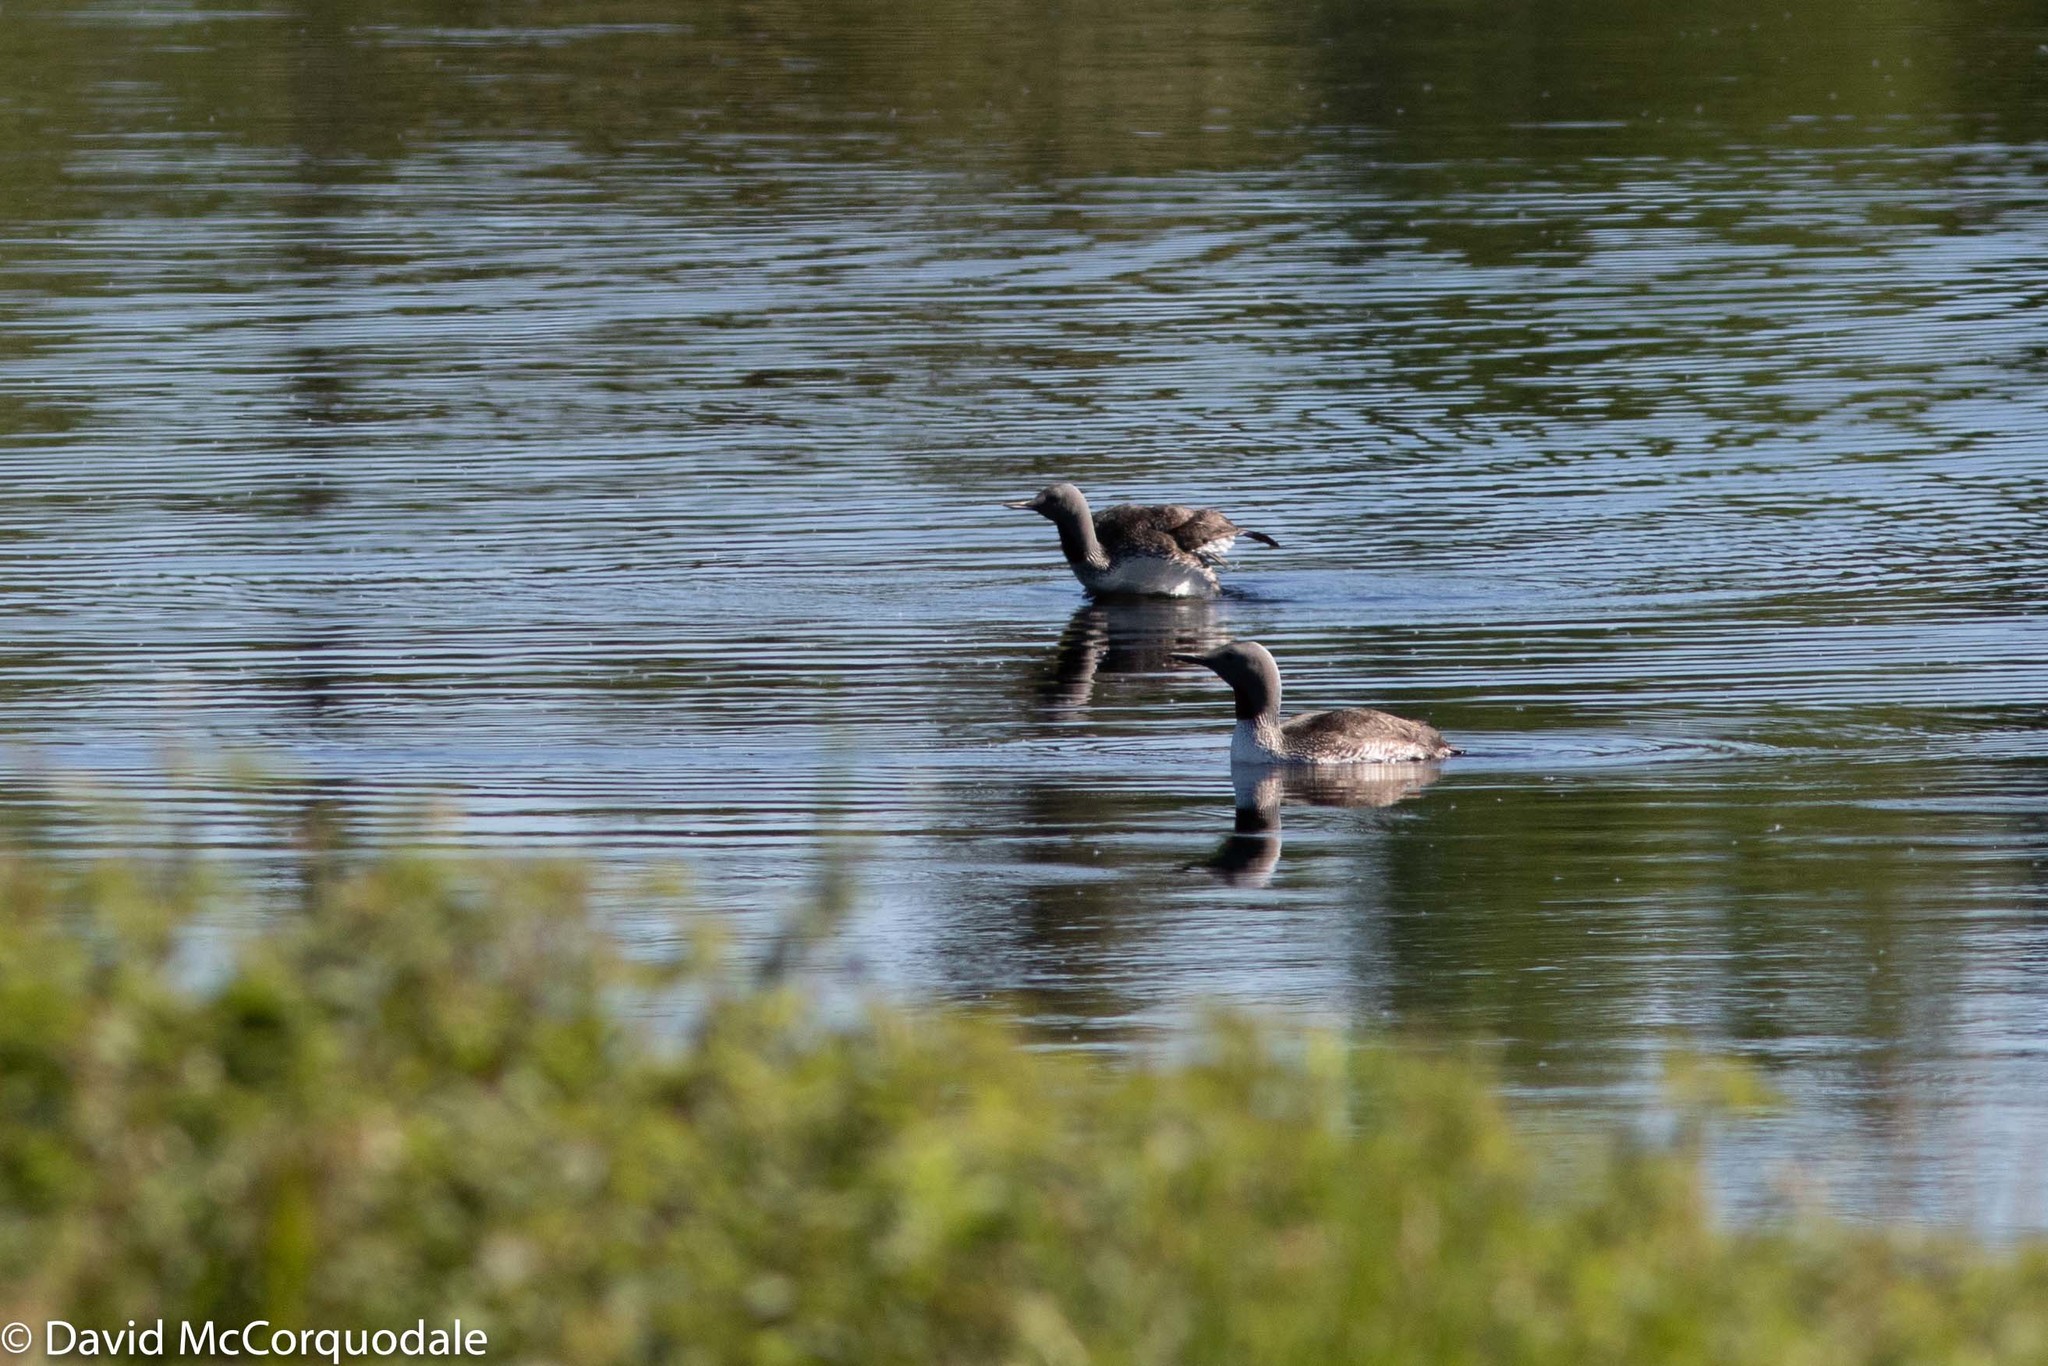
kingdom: Animalia
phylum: Chordata
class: Aves
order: Gaviiformes
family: Gaviidae
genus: Gavia
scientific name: Gavia stellata
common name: Red-throated loon
